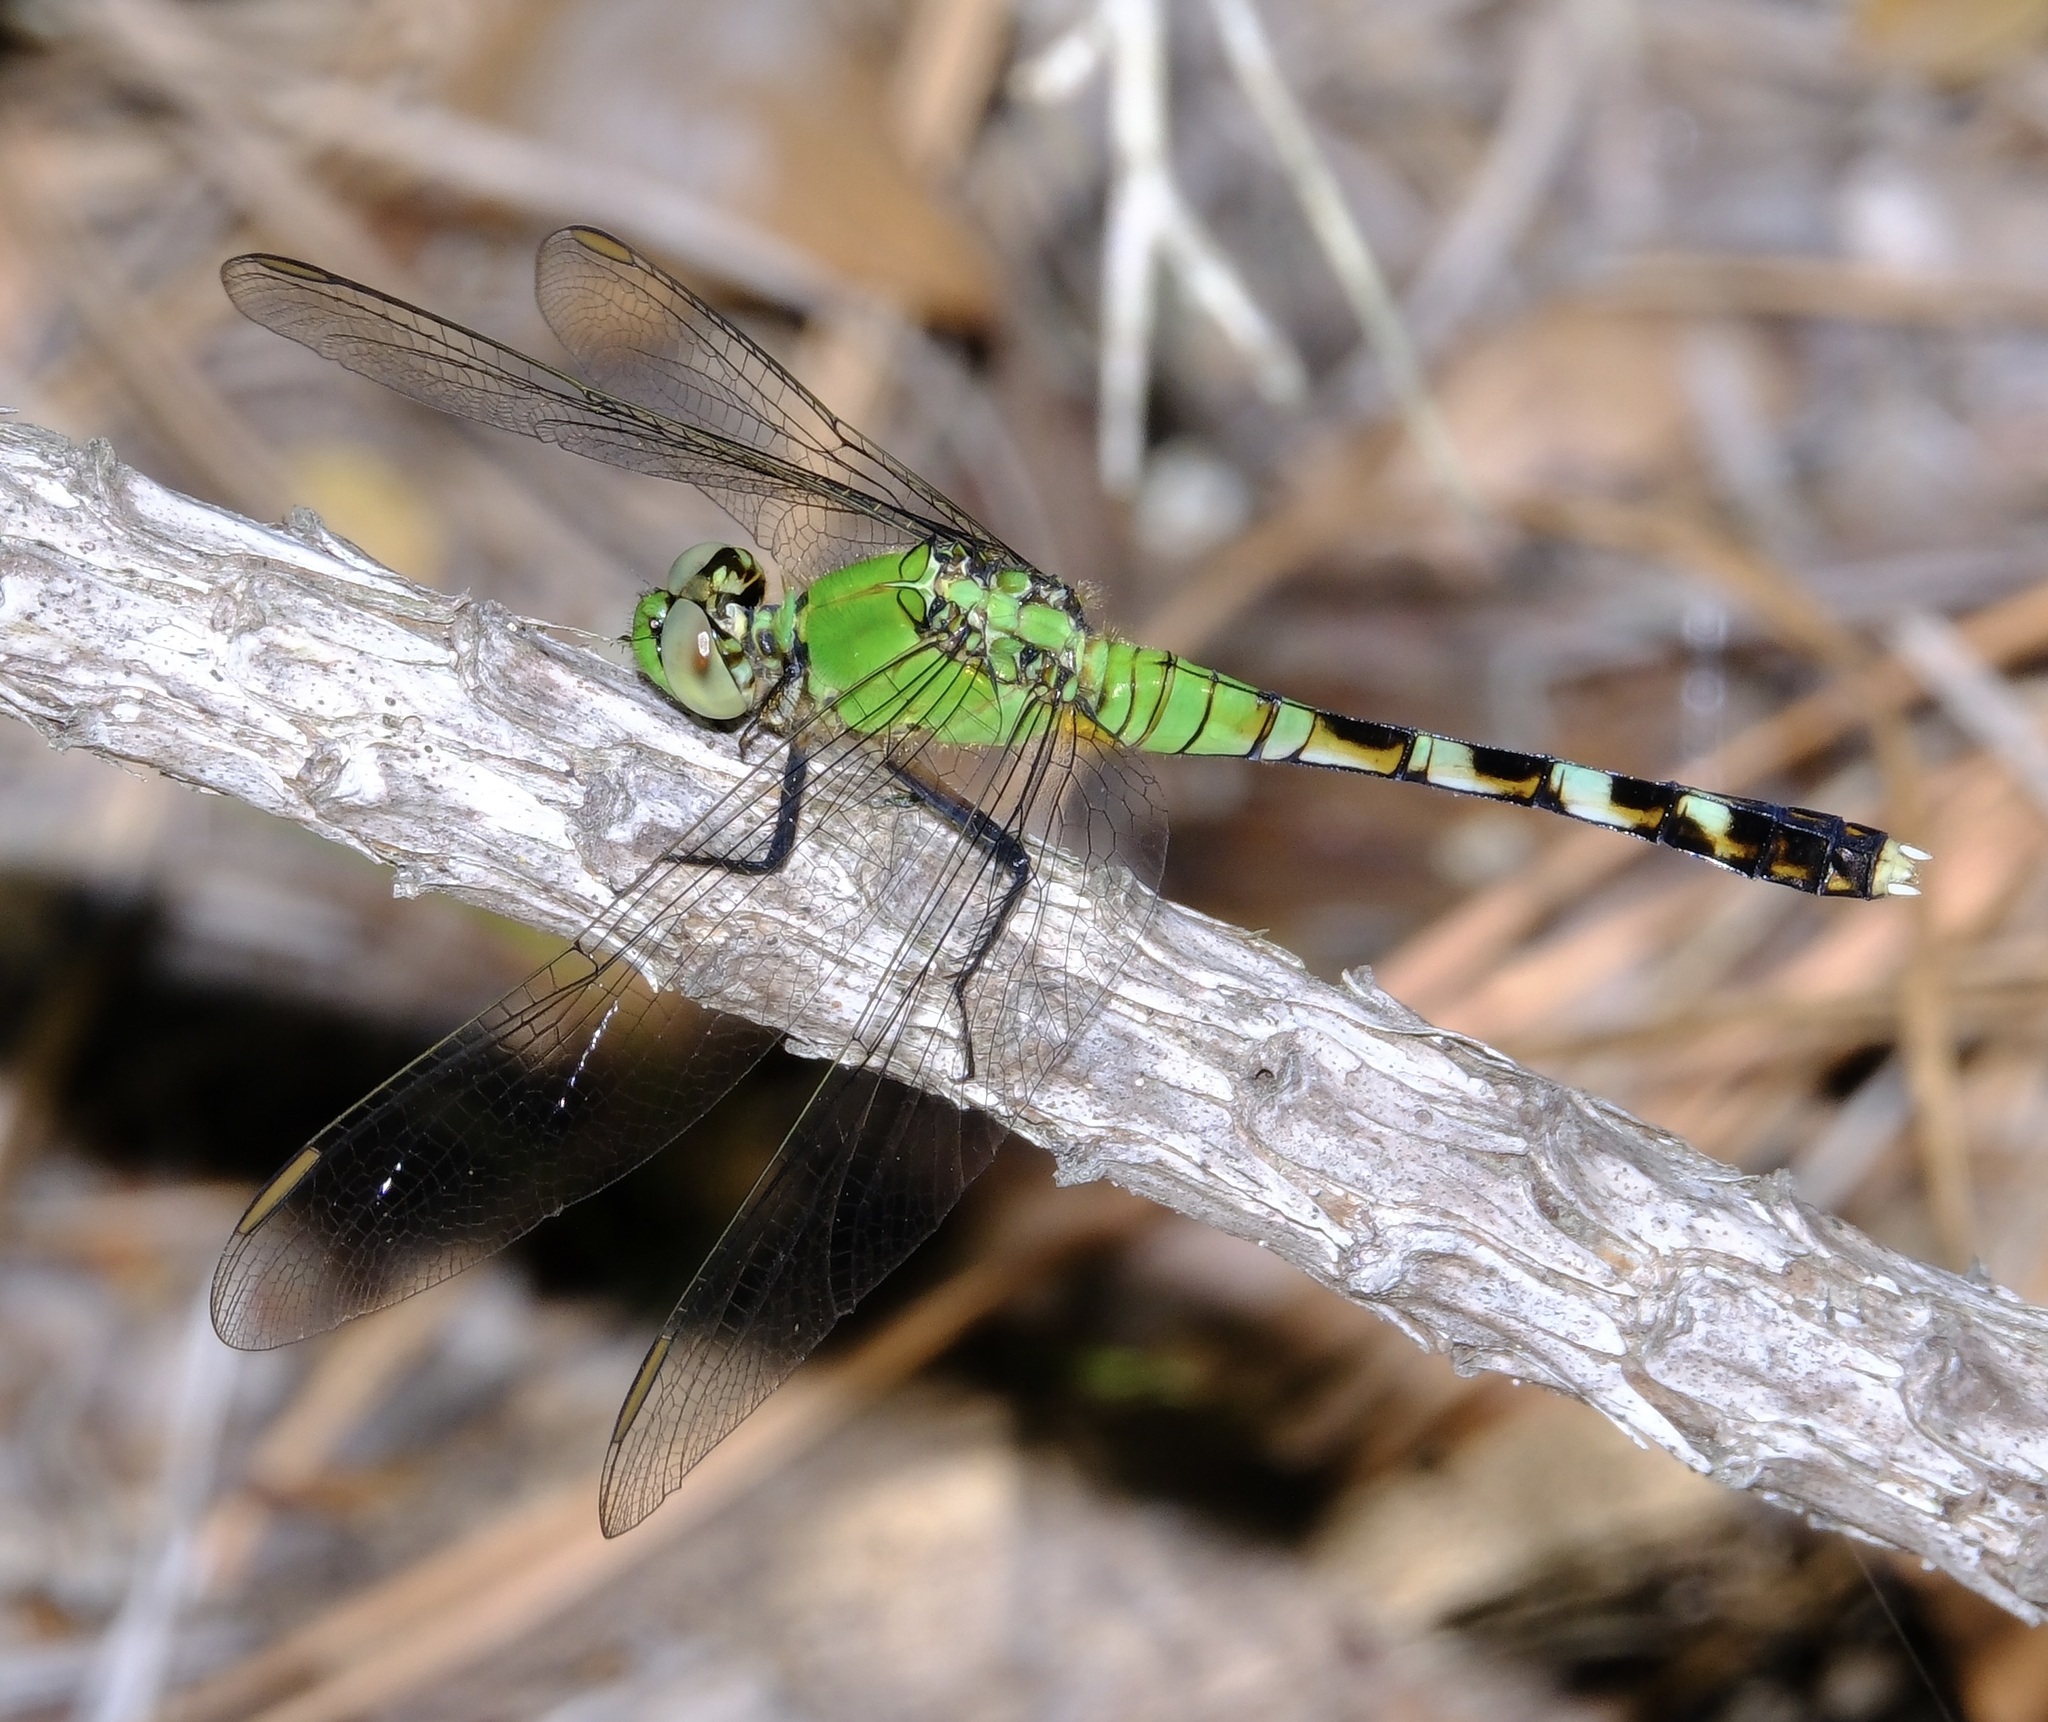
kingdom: Animalia
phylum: Arthropoda
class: Insecta
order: Odonata
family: Libellulidae
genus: Erythemis
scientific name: Erythemis simplicicollis
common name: Eastern pondhawk
